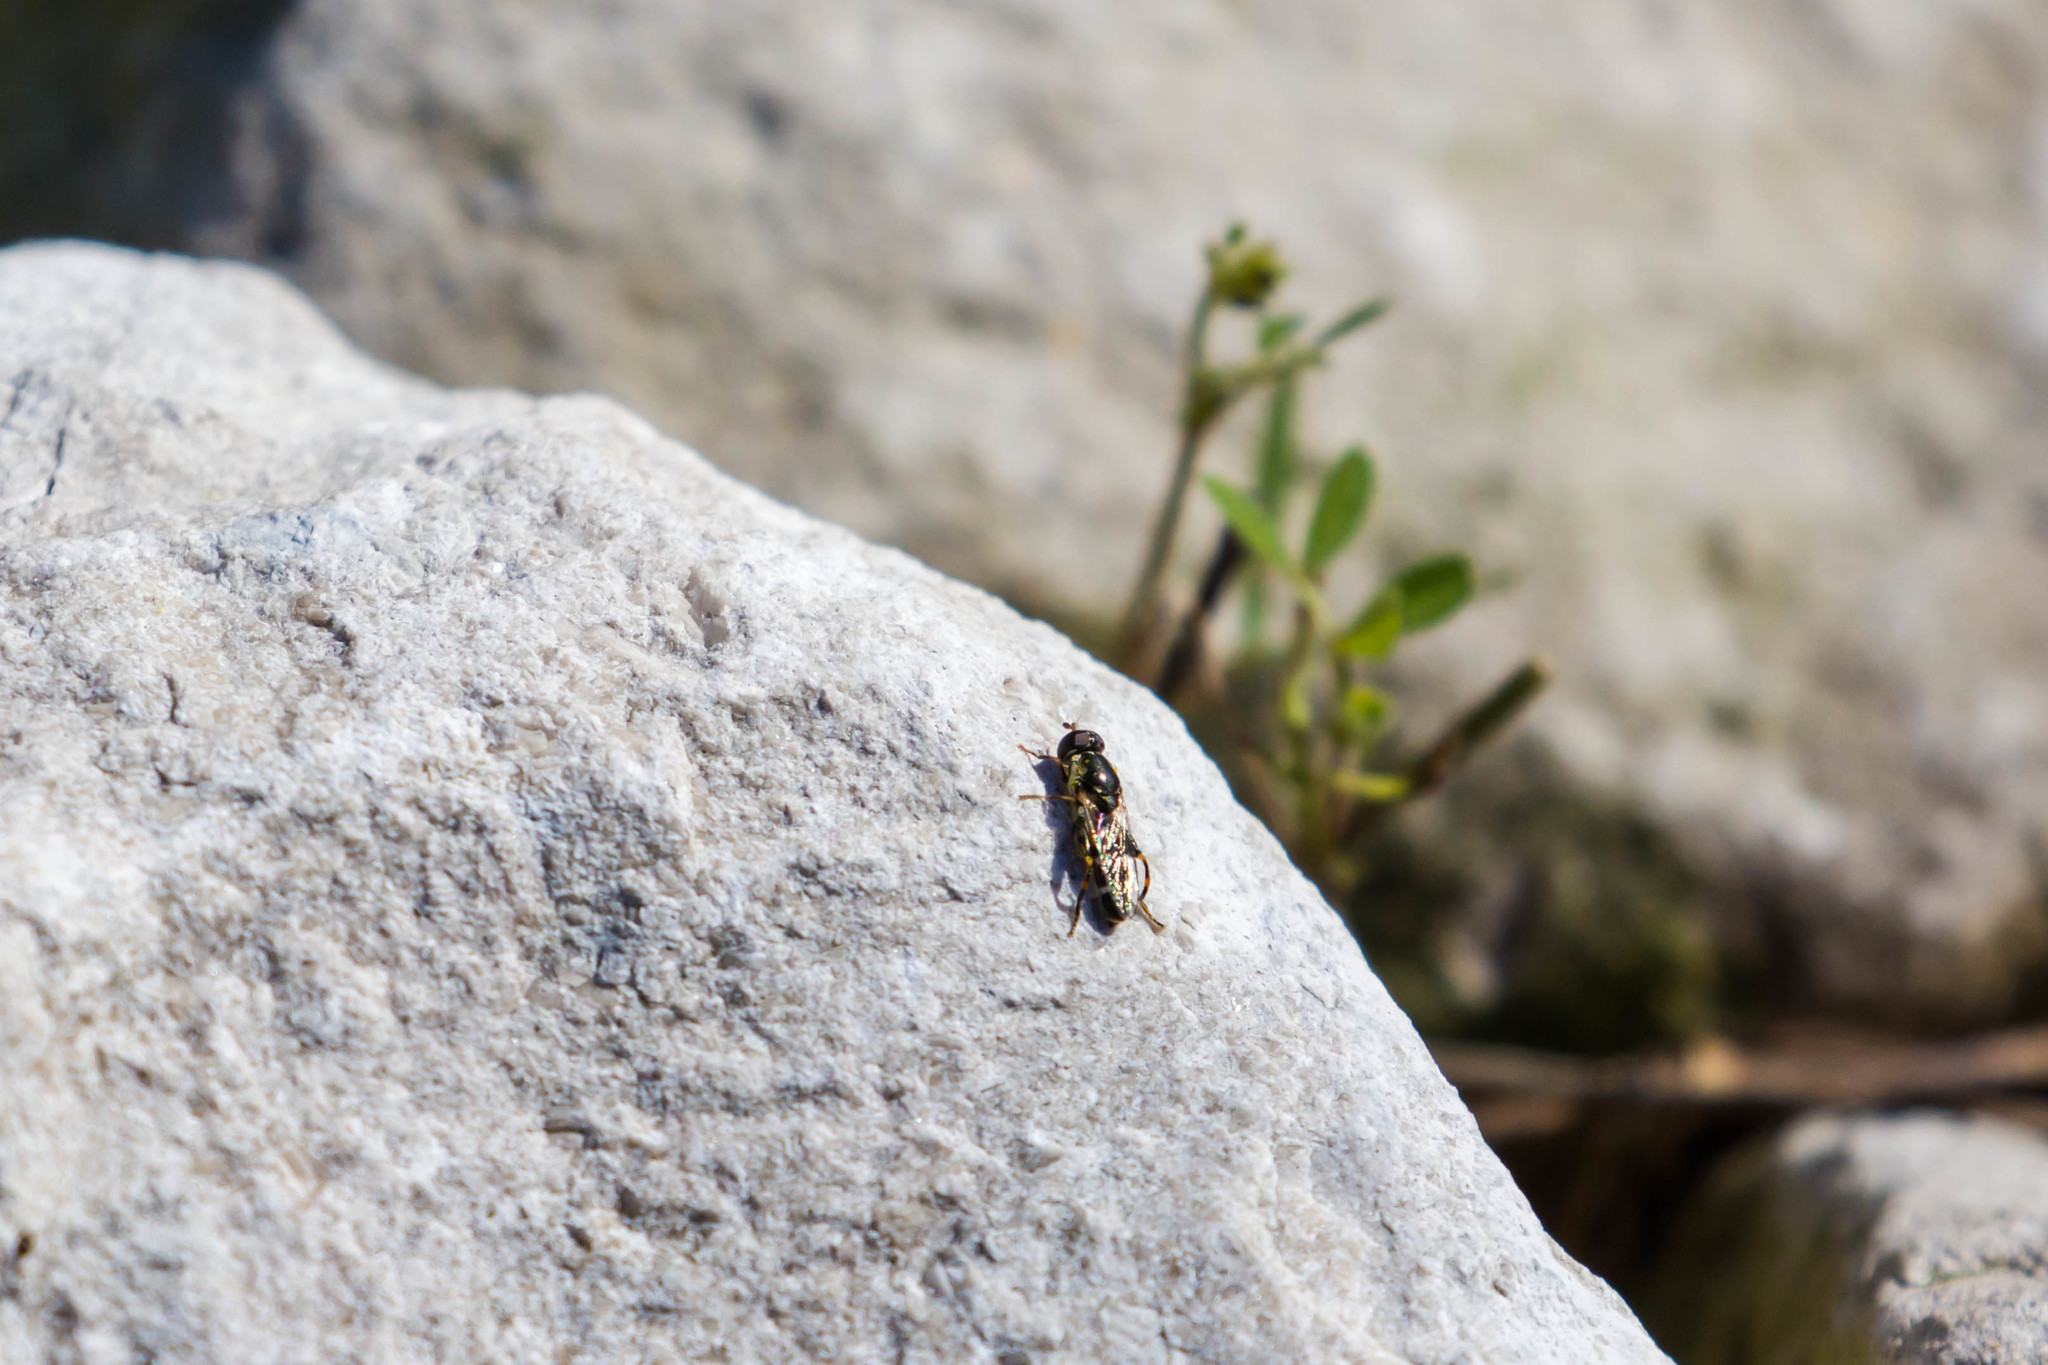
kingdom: Animalia
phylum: Arthropoda
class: Insecta
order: Diptera
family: Syrphidae
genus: Syritta
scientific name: Syritta pipiens
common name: Hover fly
